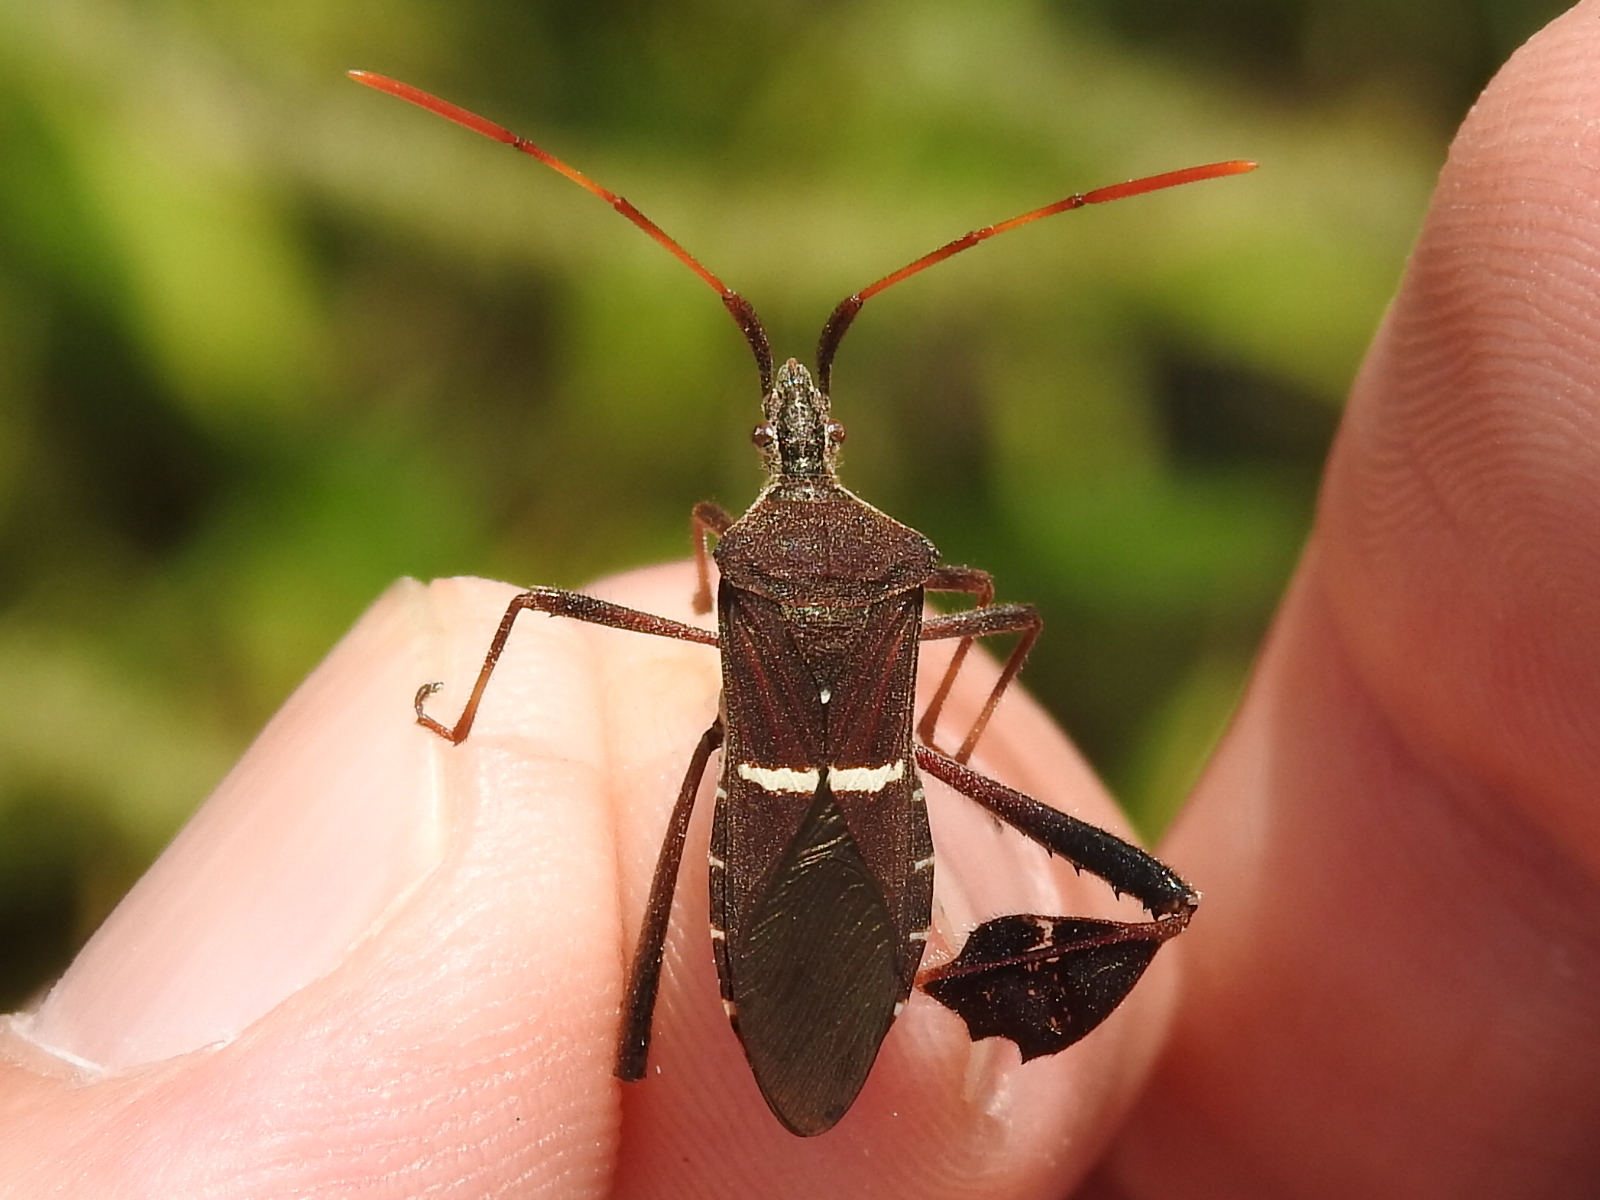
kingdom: Animalia
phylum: Arthropoda
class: Insecta
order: Hemiptera
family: Coreidae
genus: Leptoglossus
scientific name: Leptoglossus phyllopus
